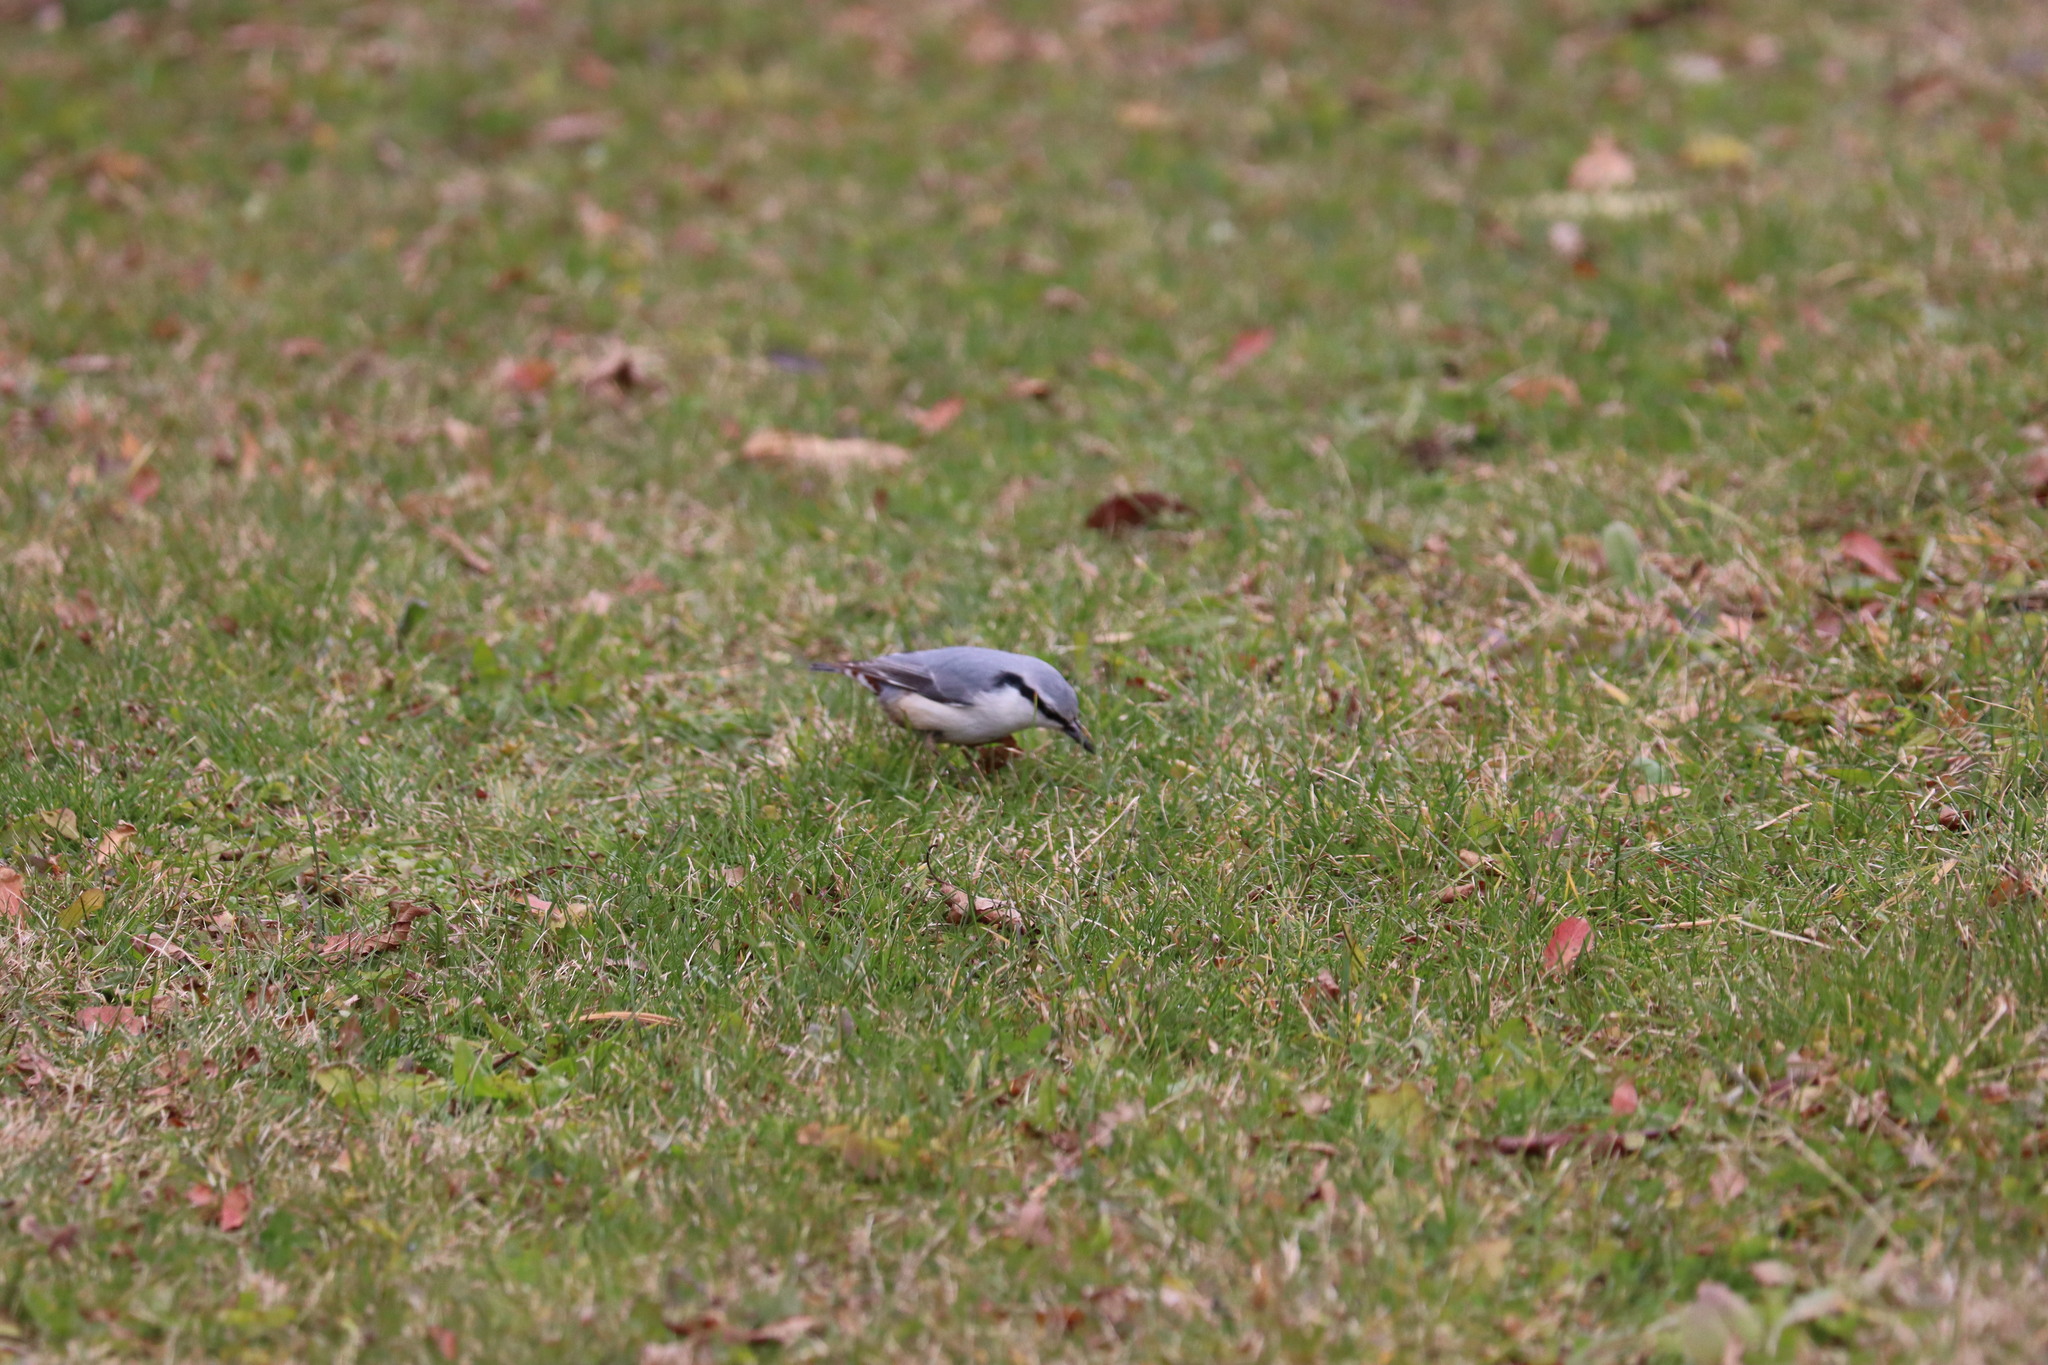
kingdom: Animalia
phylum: Chordata
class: Aves
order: Passeriformes
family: Sittidae
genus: Sitta
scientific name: Sitta europaea
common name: Eurasian nuthatch
